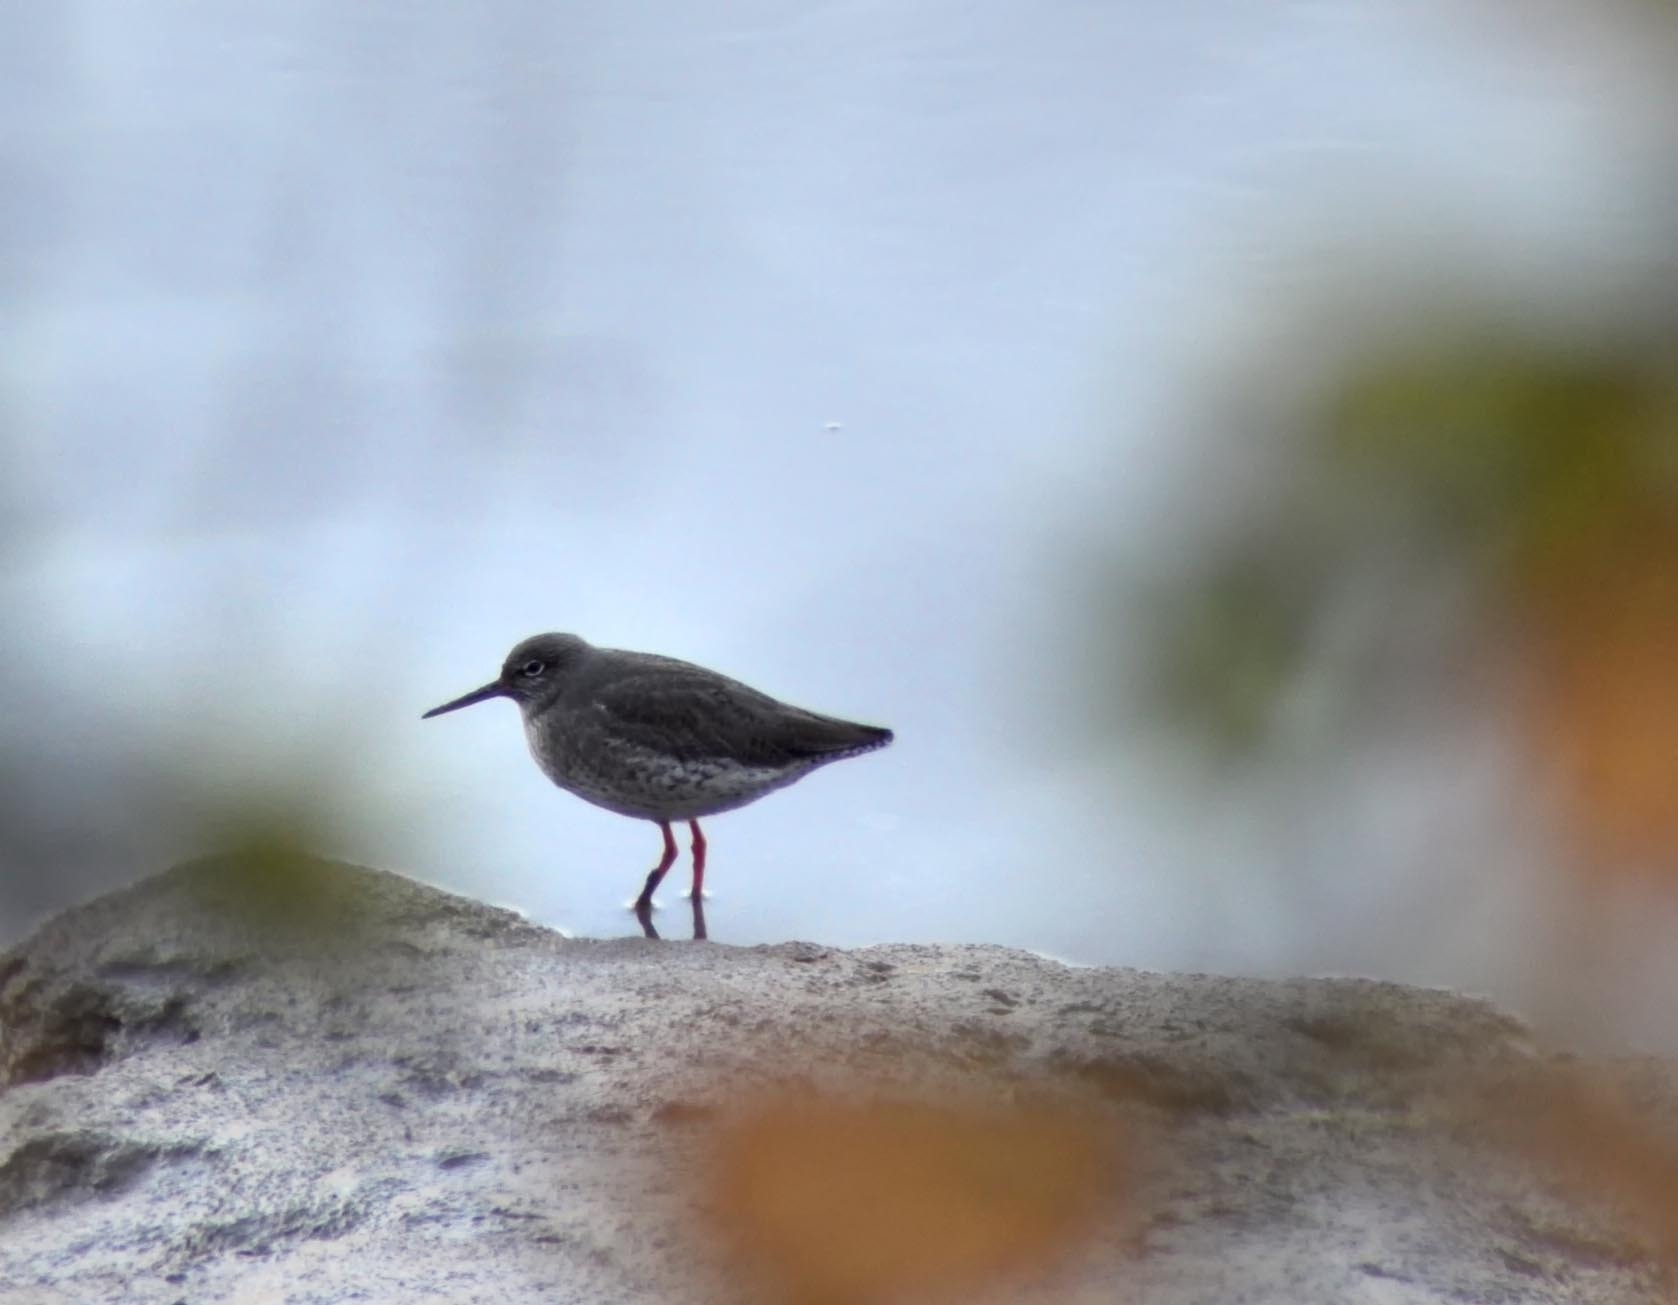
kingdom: Animalia
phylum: Chordata
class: Aves
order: Charadriiformes
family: Scolopacidae
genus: Tringa
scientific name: Tringa totanus
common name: Common redshank
